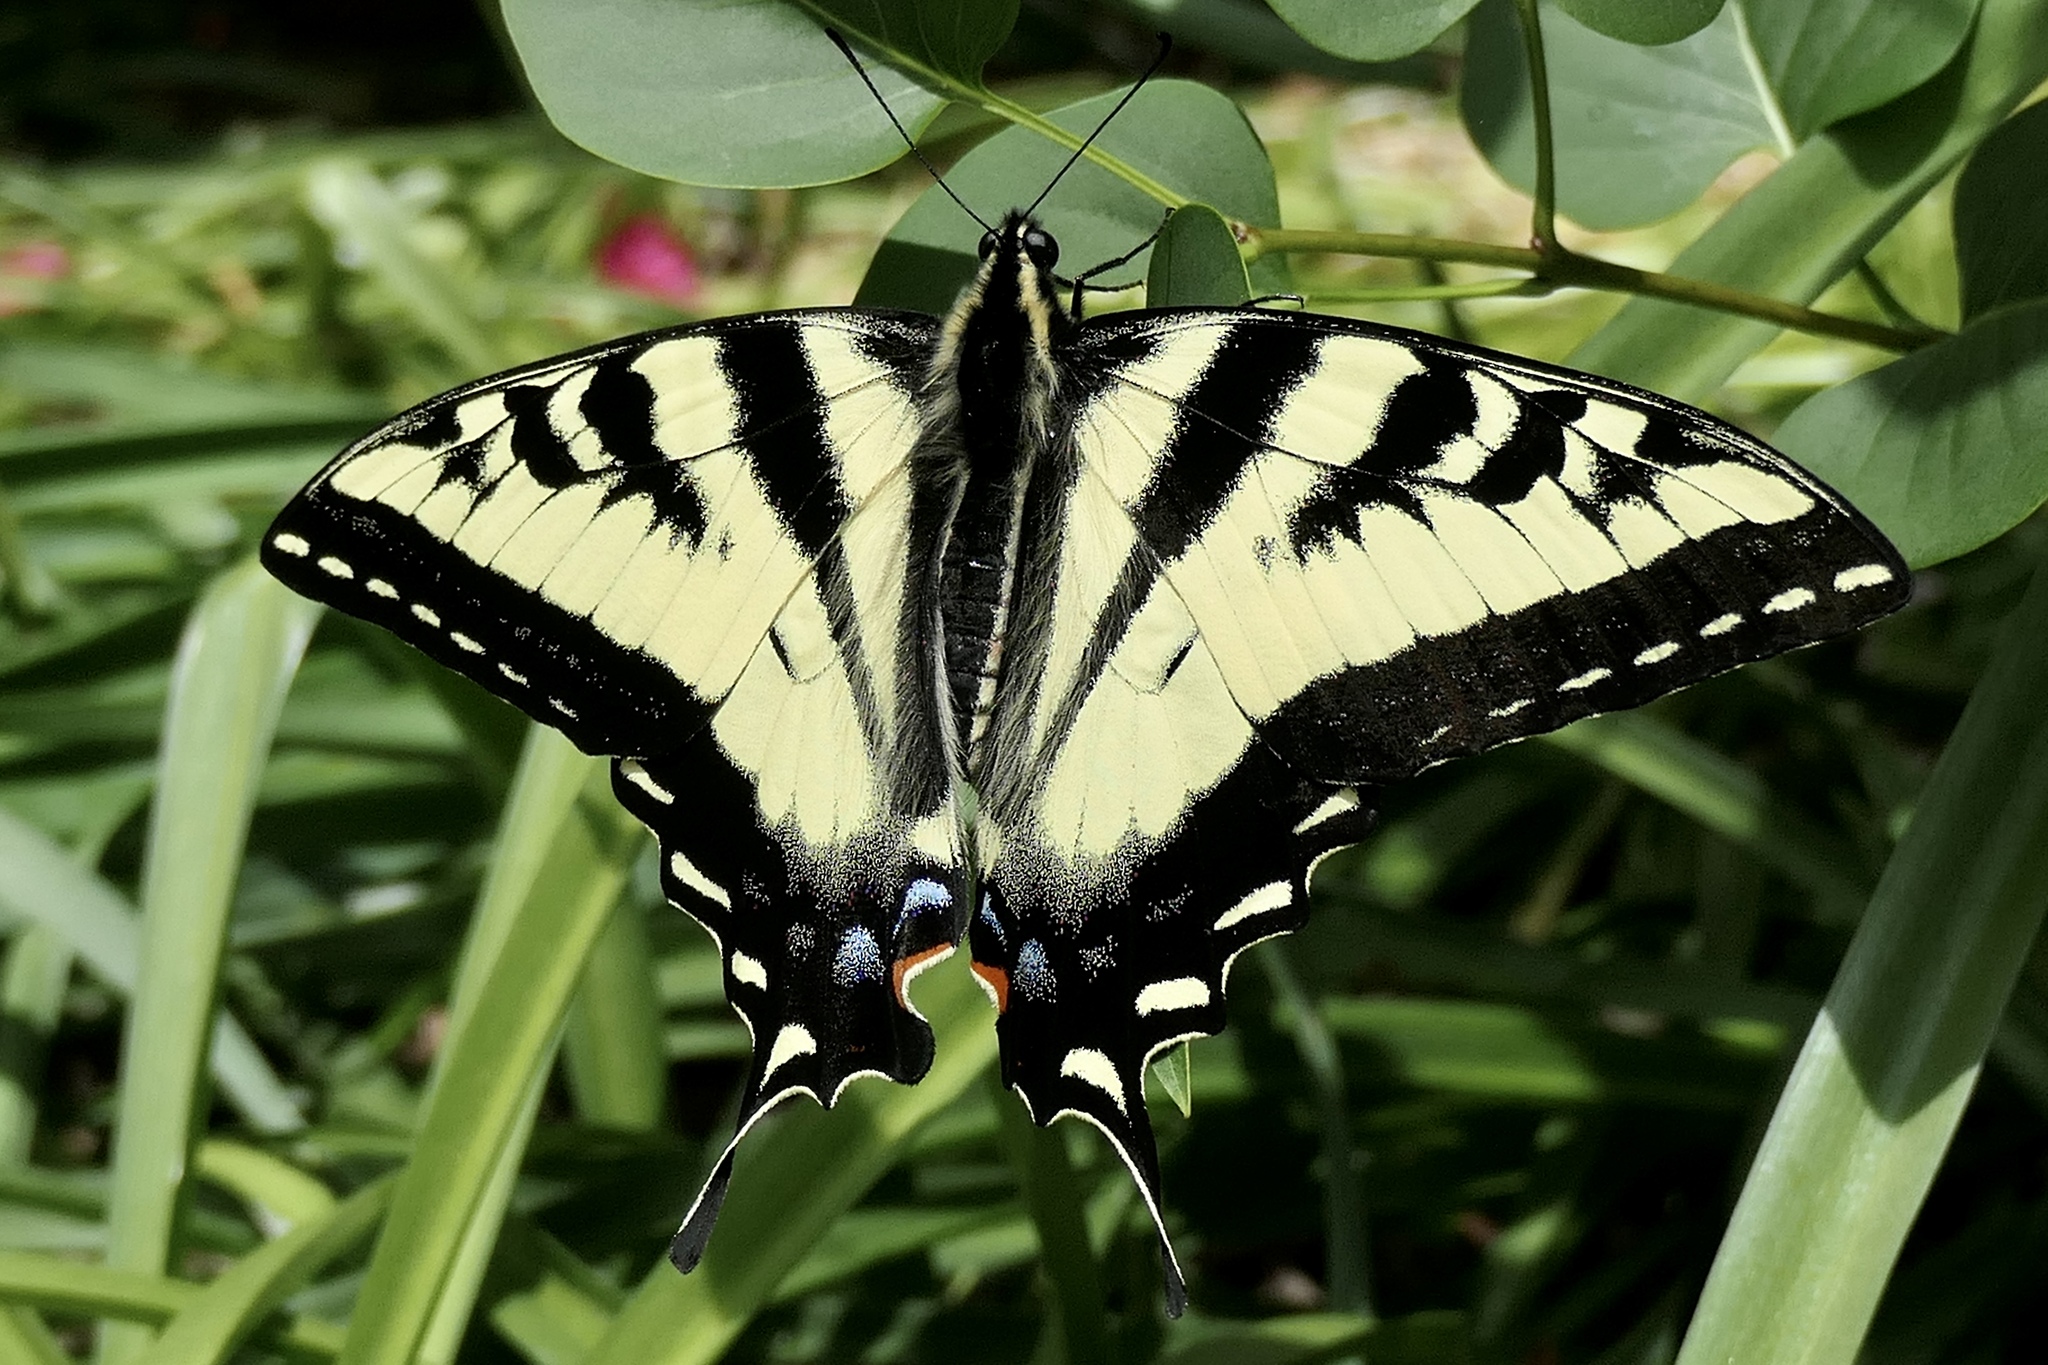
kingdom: Animalia
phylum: Arthropoda
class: Insecta
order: Lepidoptera
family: Papilionidae
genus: Papilio
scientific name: Papilio rutulus
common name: Western tiger swallowtail
